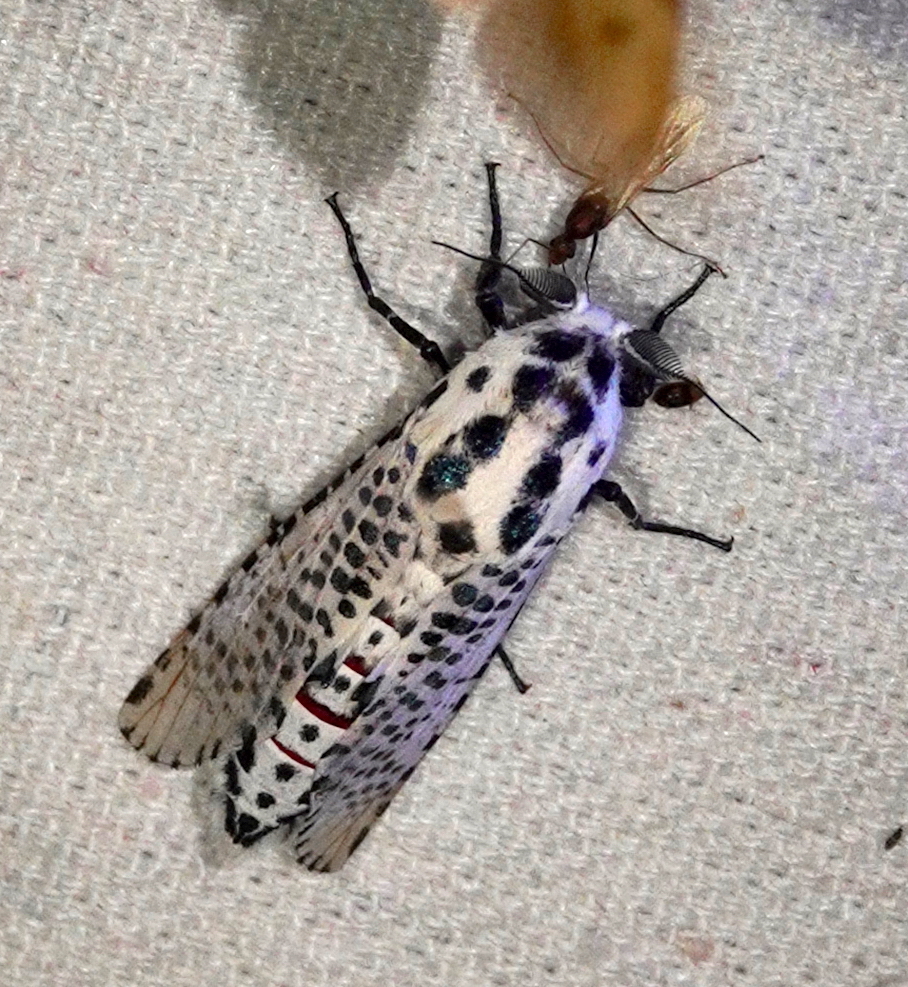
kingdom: Animalia
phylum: Arthropoda
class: Insecta
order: Lepidoptera
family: Cossidae
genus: Polyphagozerra
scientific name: Polyphagozerra coffeae
